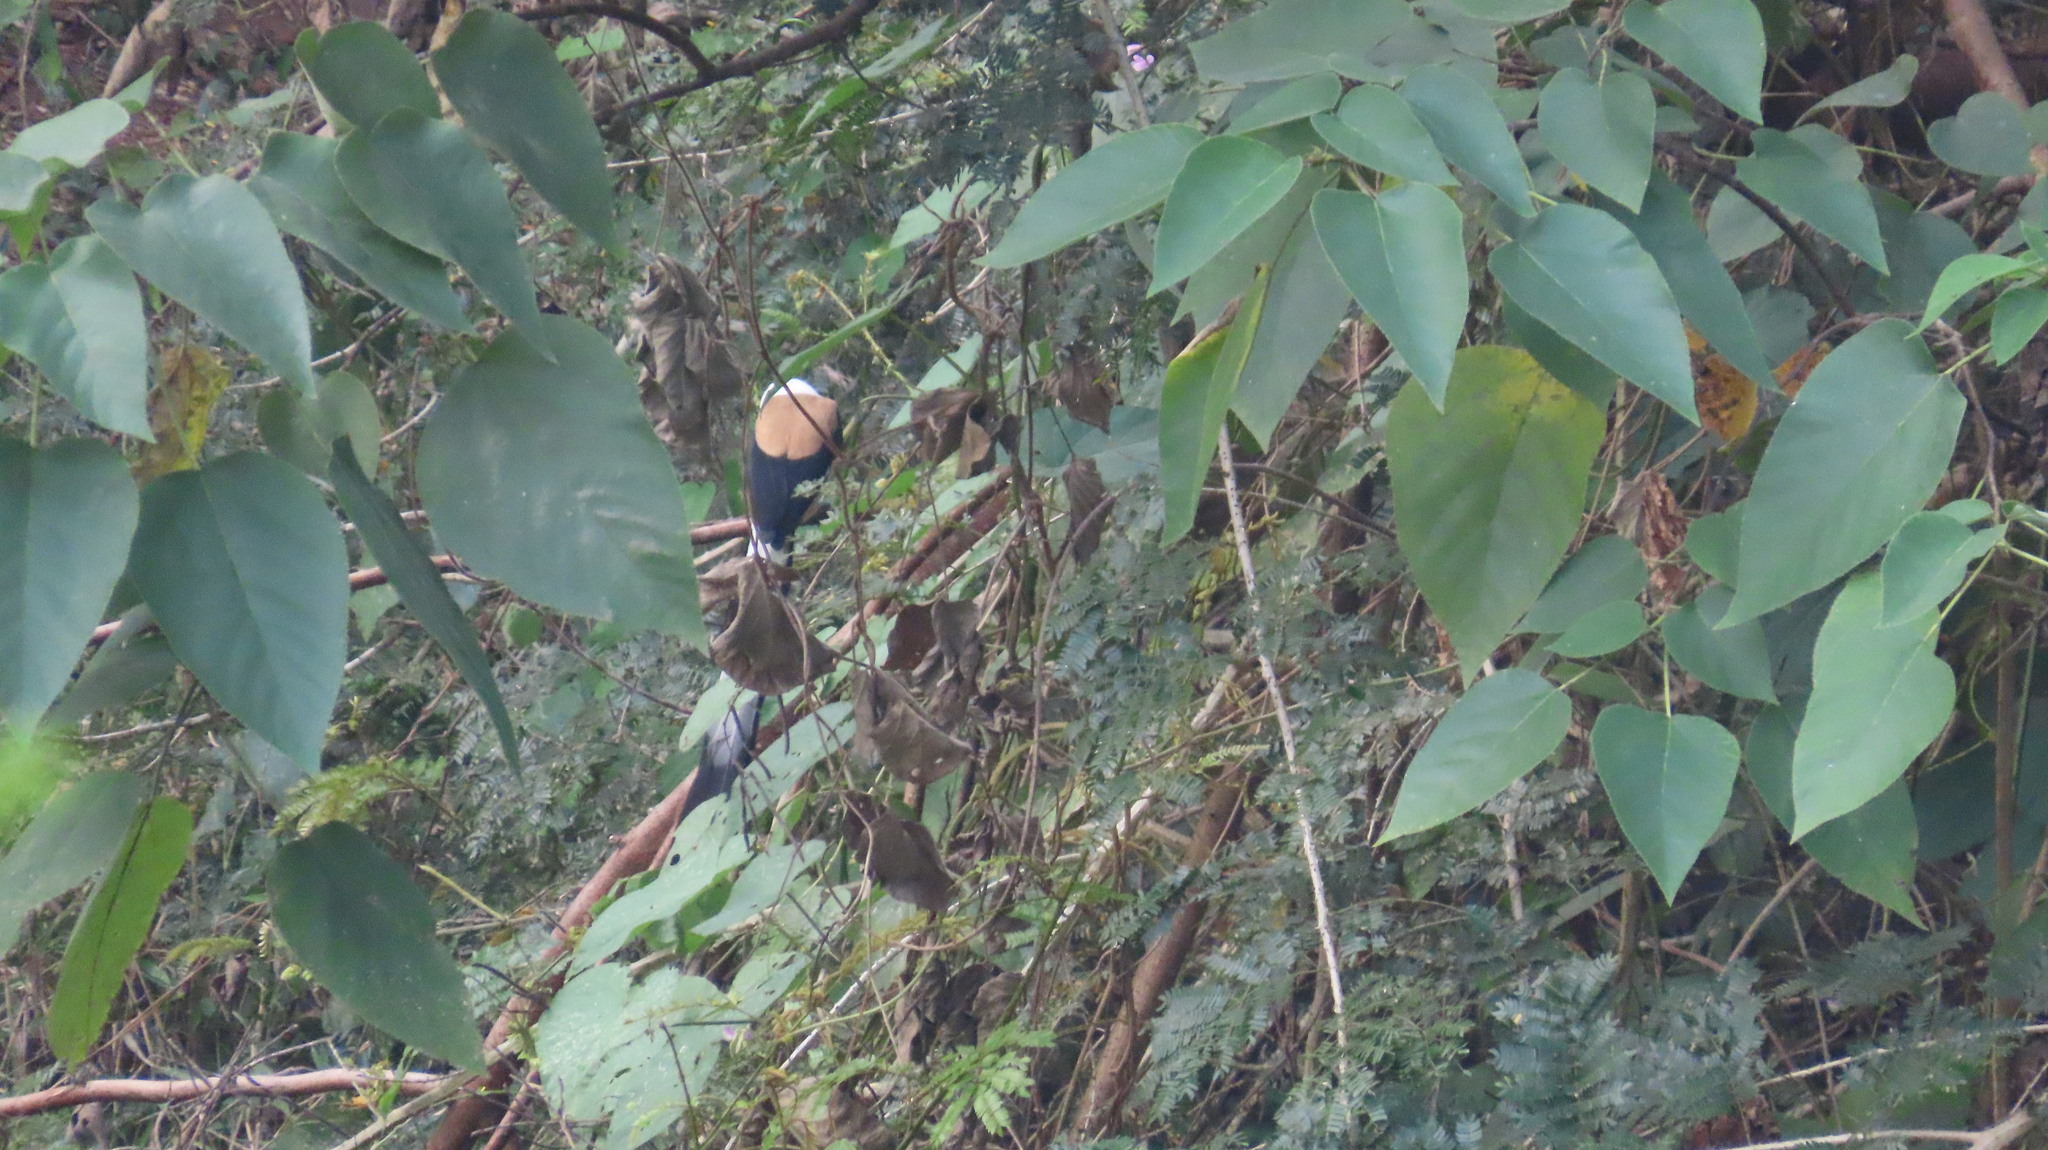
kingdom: Animalia
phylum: Chordata
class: Aves
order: Passeriformes
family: Corvidae
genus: Dendrocitta
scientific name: Dendrocitta leucogastra
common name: White-bellied treepie
